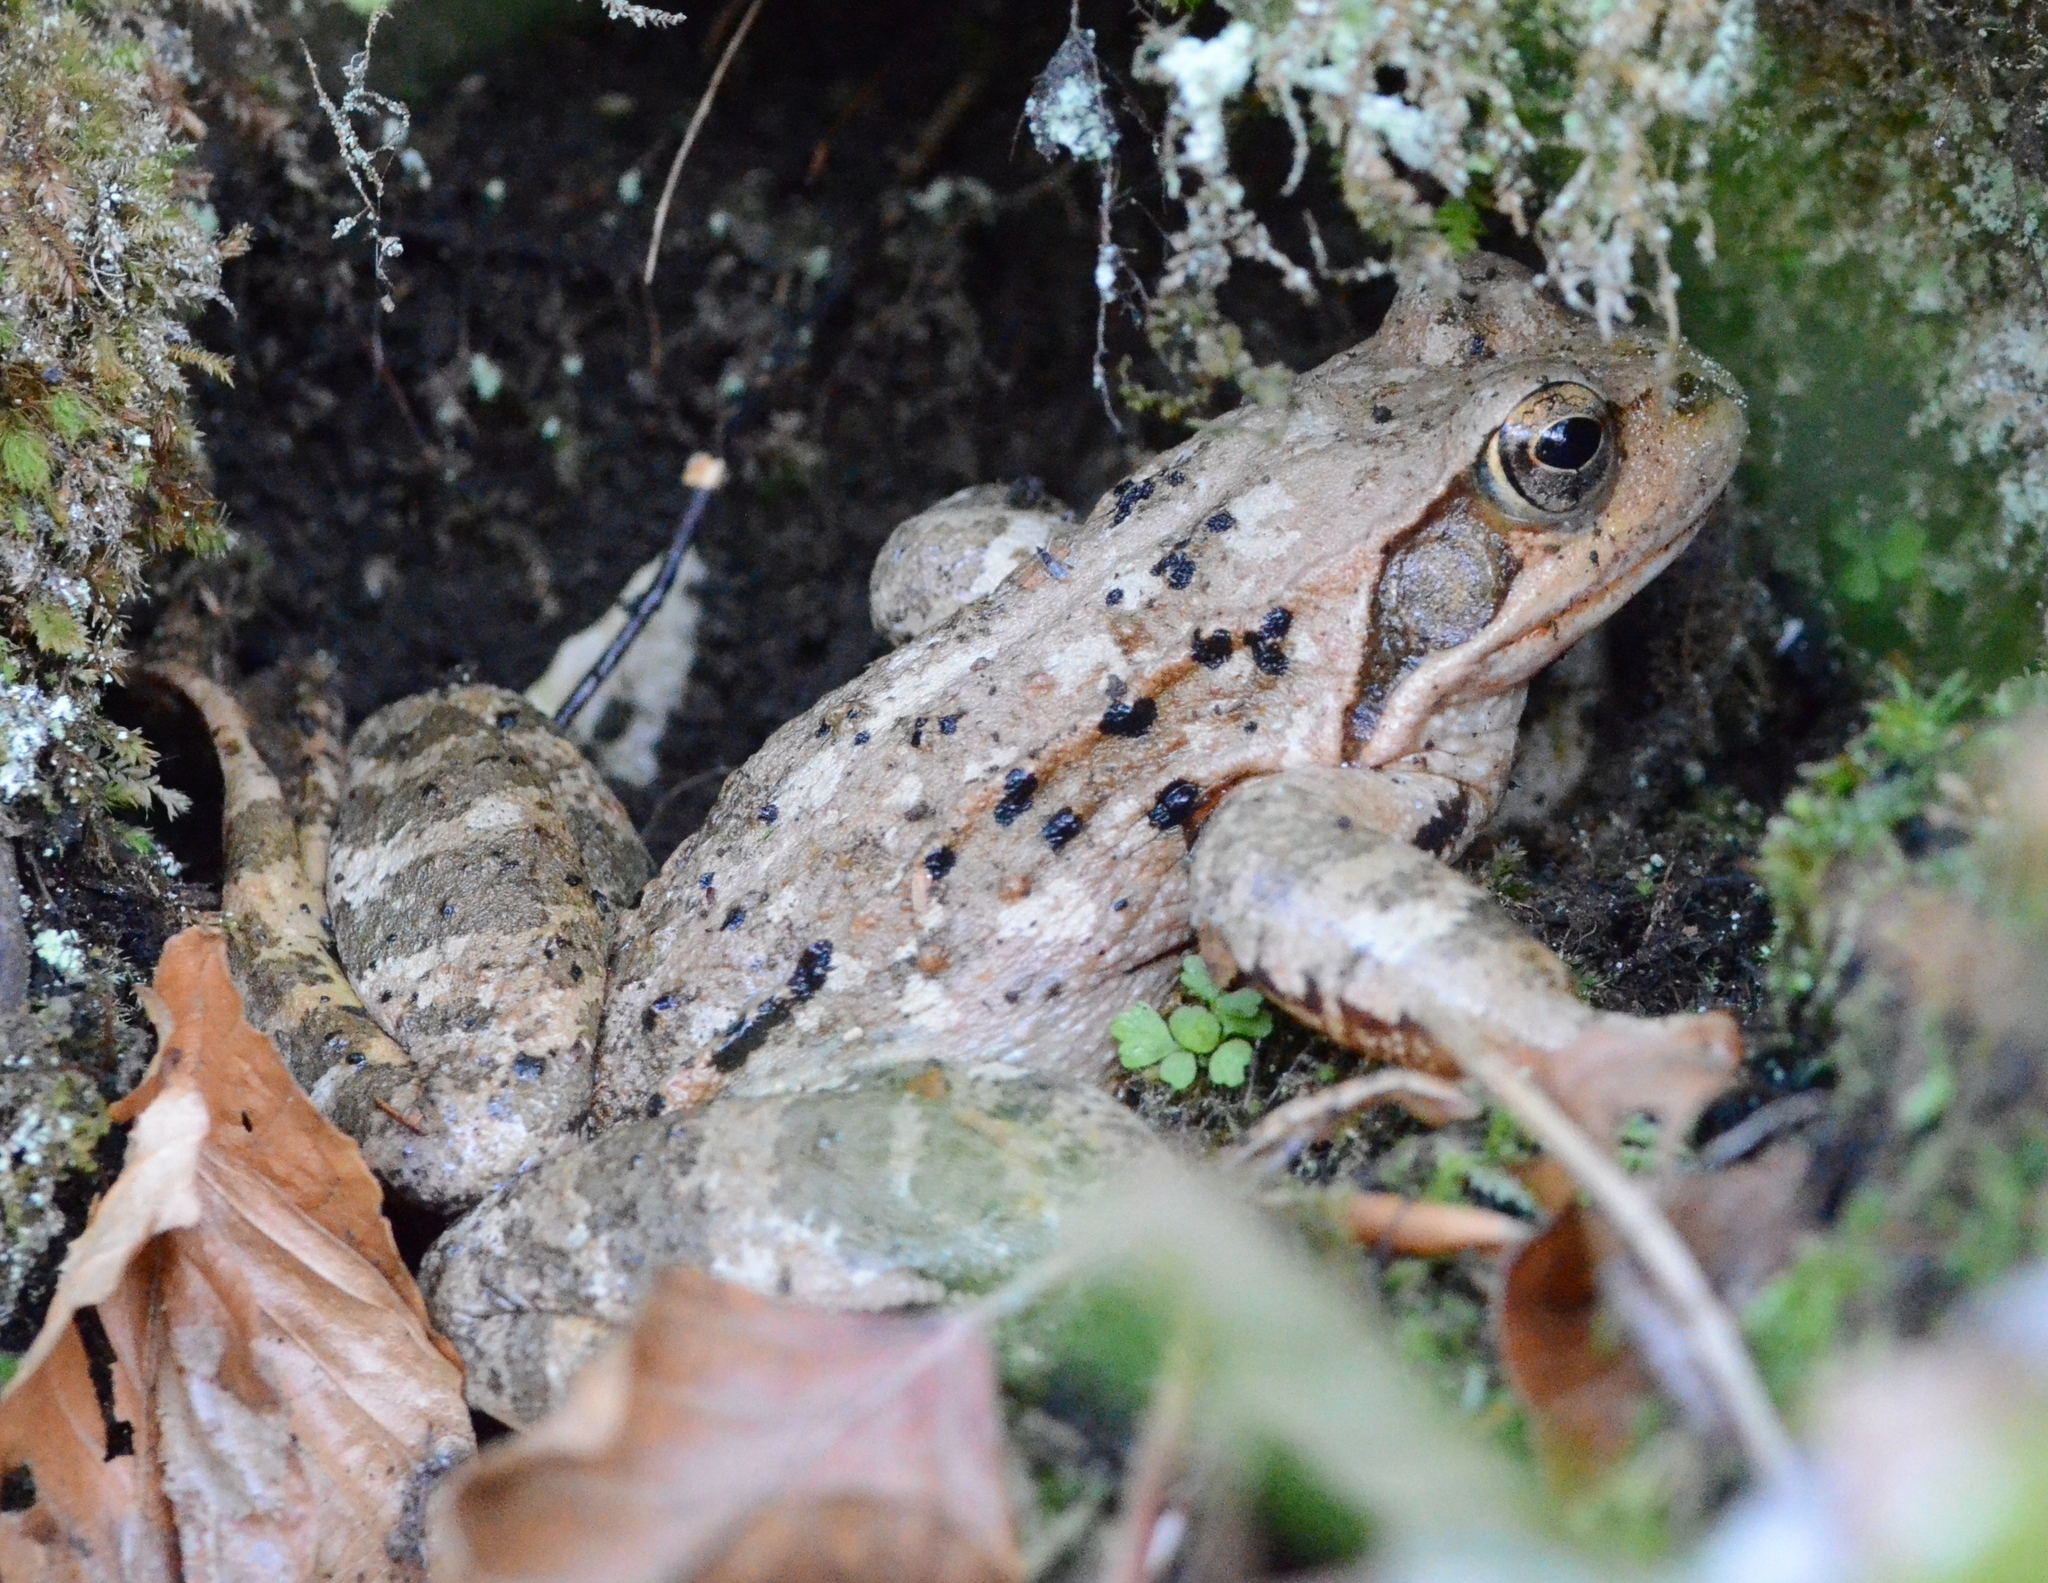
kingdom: Animalia
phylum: Chordata
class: Amphibia
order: Anura
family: Ranidae
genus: Rana
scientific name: Rana temporaria
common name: Common frog
